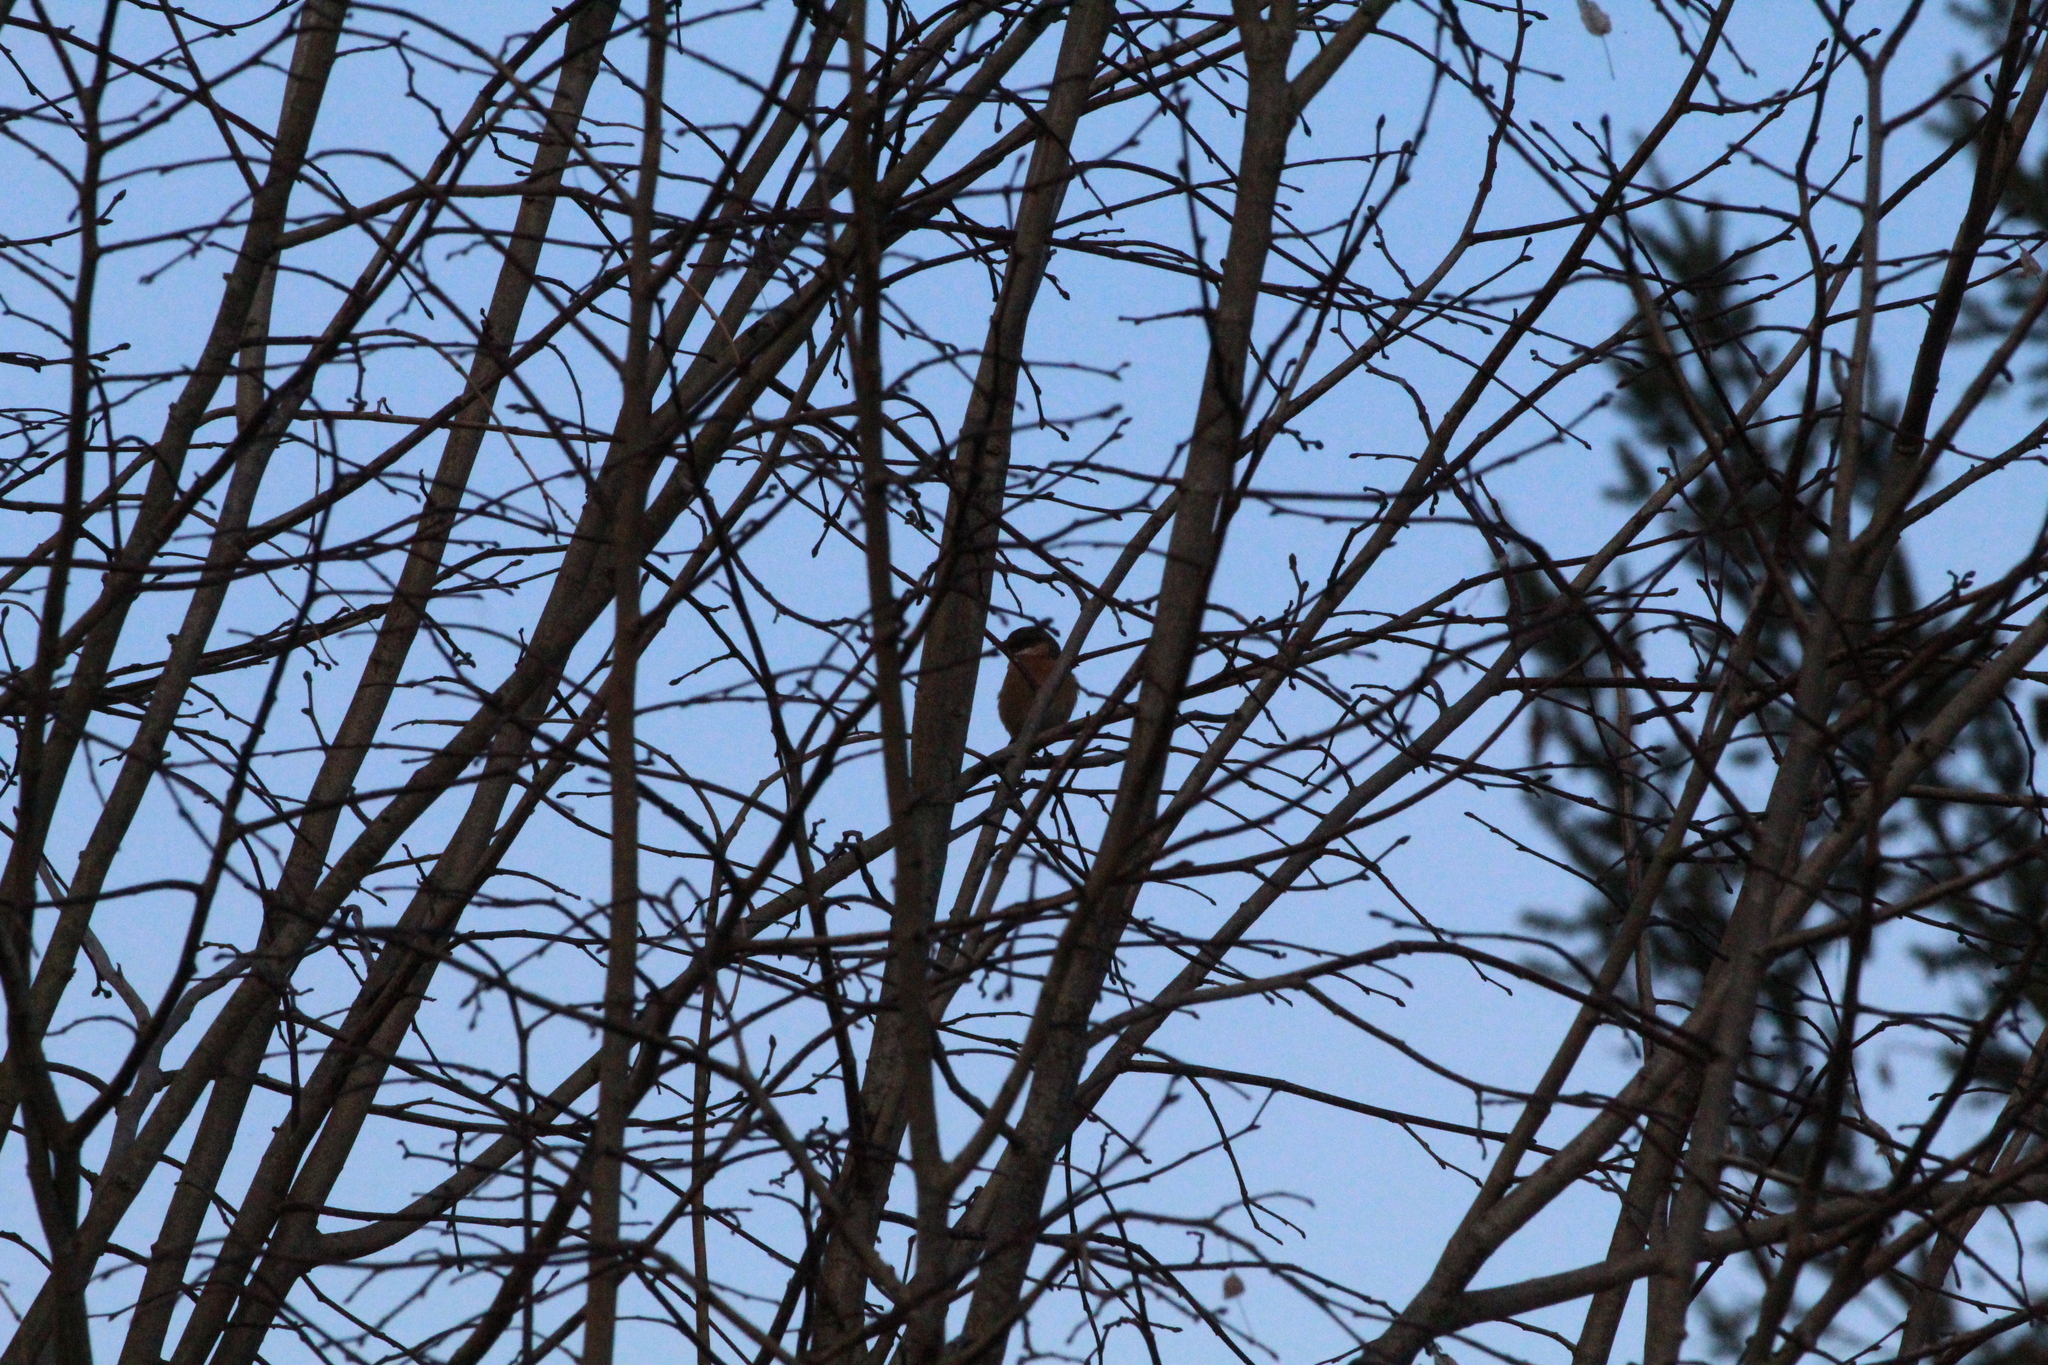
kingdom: Animalia
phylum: Chordata
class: Aves
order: Passeriformes
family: Muscicapidae
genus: Saxicola
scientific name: Saxicola rubicola
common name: European stonechat
